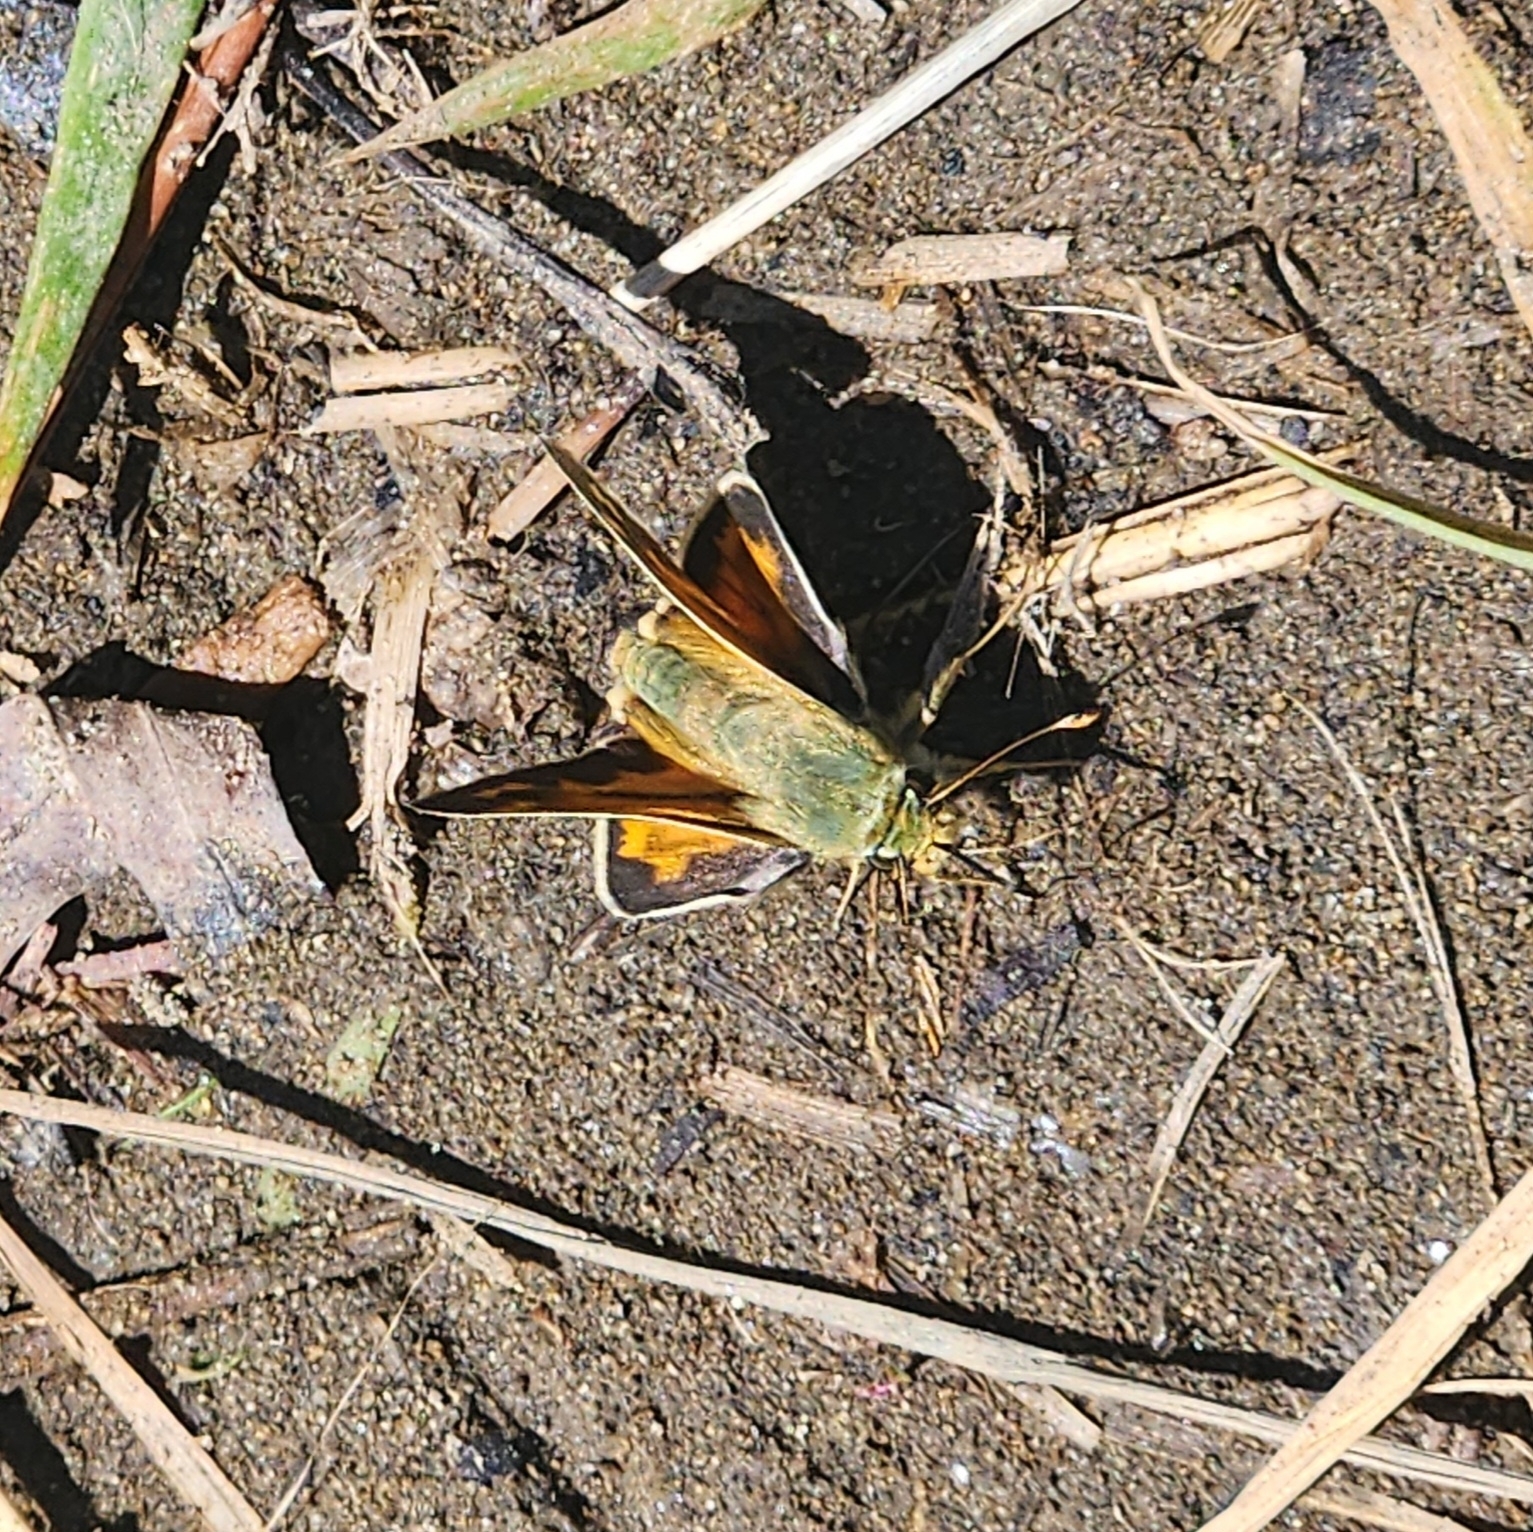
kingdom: Animalia
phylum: Arthropoda
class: Insecta
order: Lepidoptera
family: Hesperiidae
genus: Hesperia
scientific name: Hesperia juba
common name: Juba skipper
